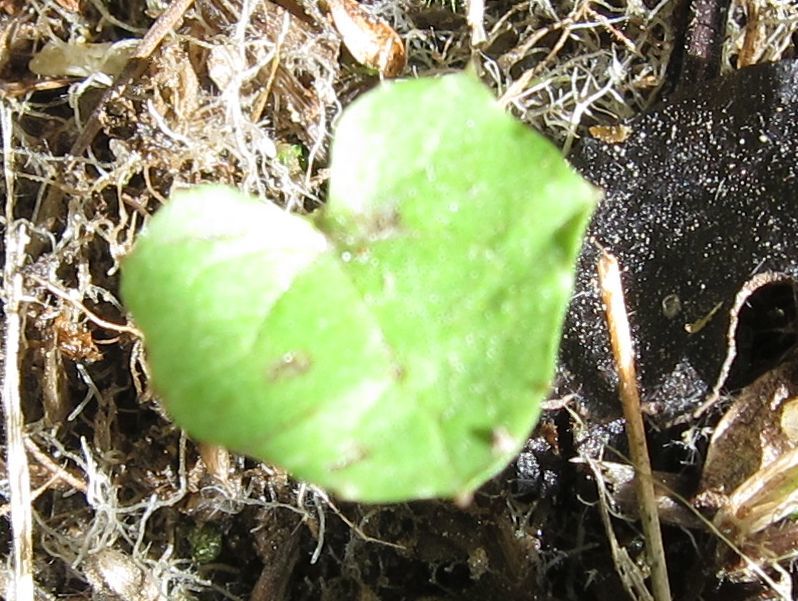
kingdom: Plantae
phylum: Tracheophyta
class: Magnoliopsida
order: Asterales
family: Asteraceae
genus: Mycelis
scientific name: Mycelis muralis
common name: Wall lettuce
